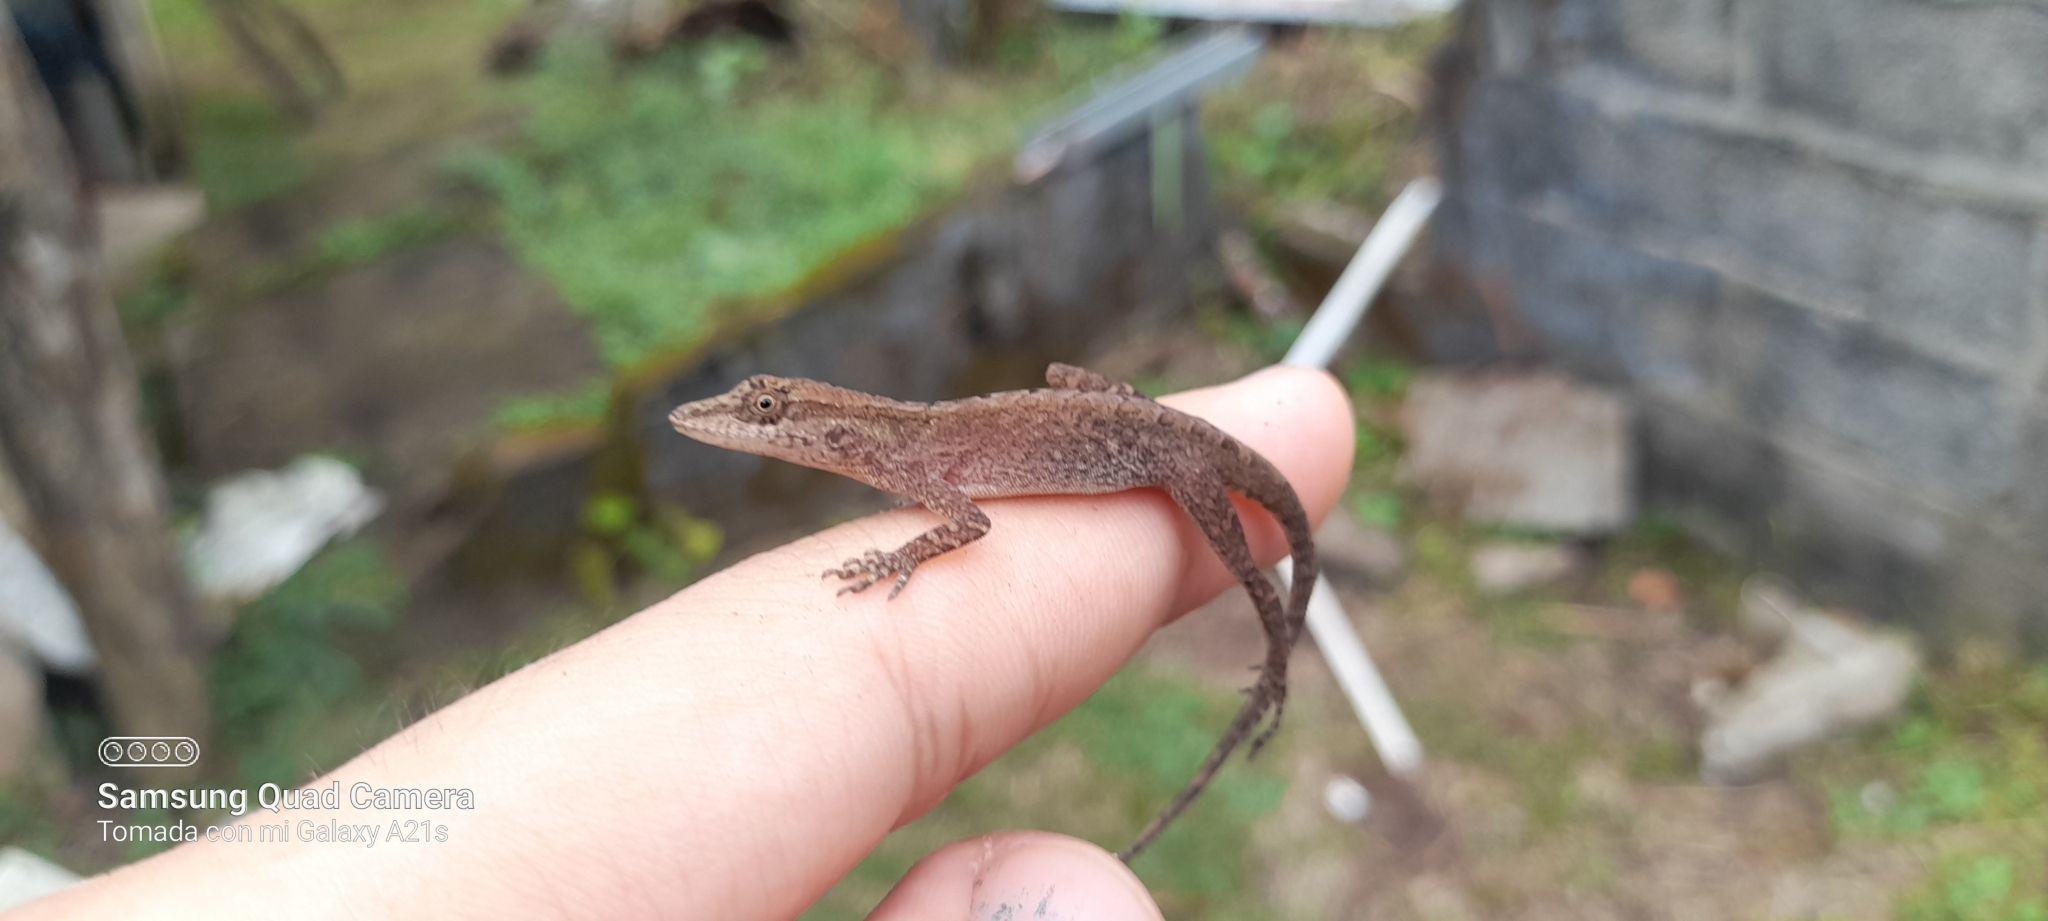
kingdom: Animalia
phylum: Chordata
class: Squamata
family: Dactyloidae
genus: Anolis
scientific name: Anolis gaigei
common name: Gaige’s anole
